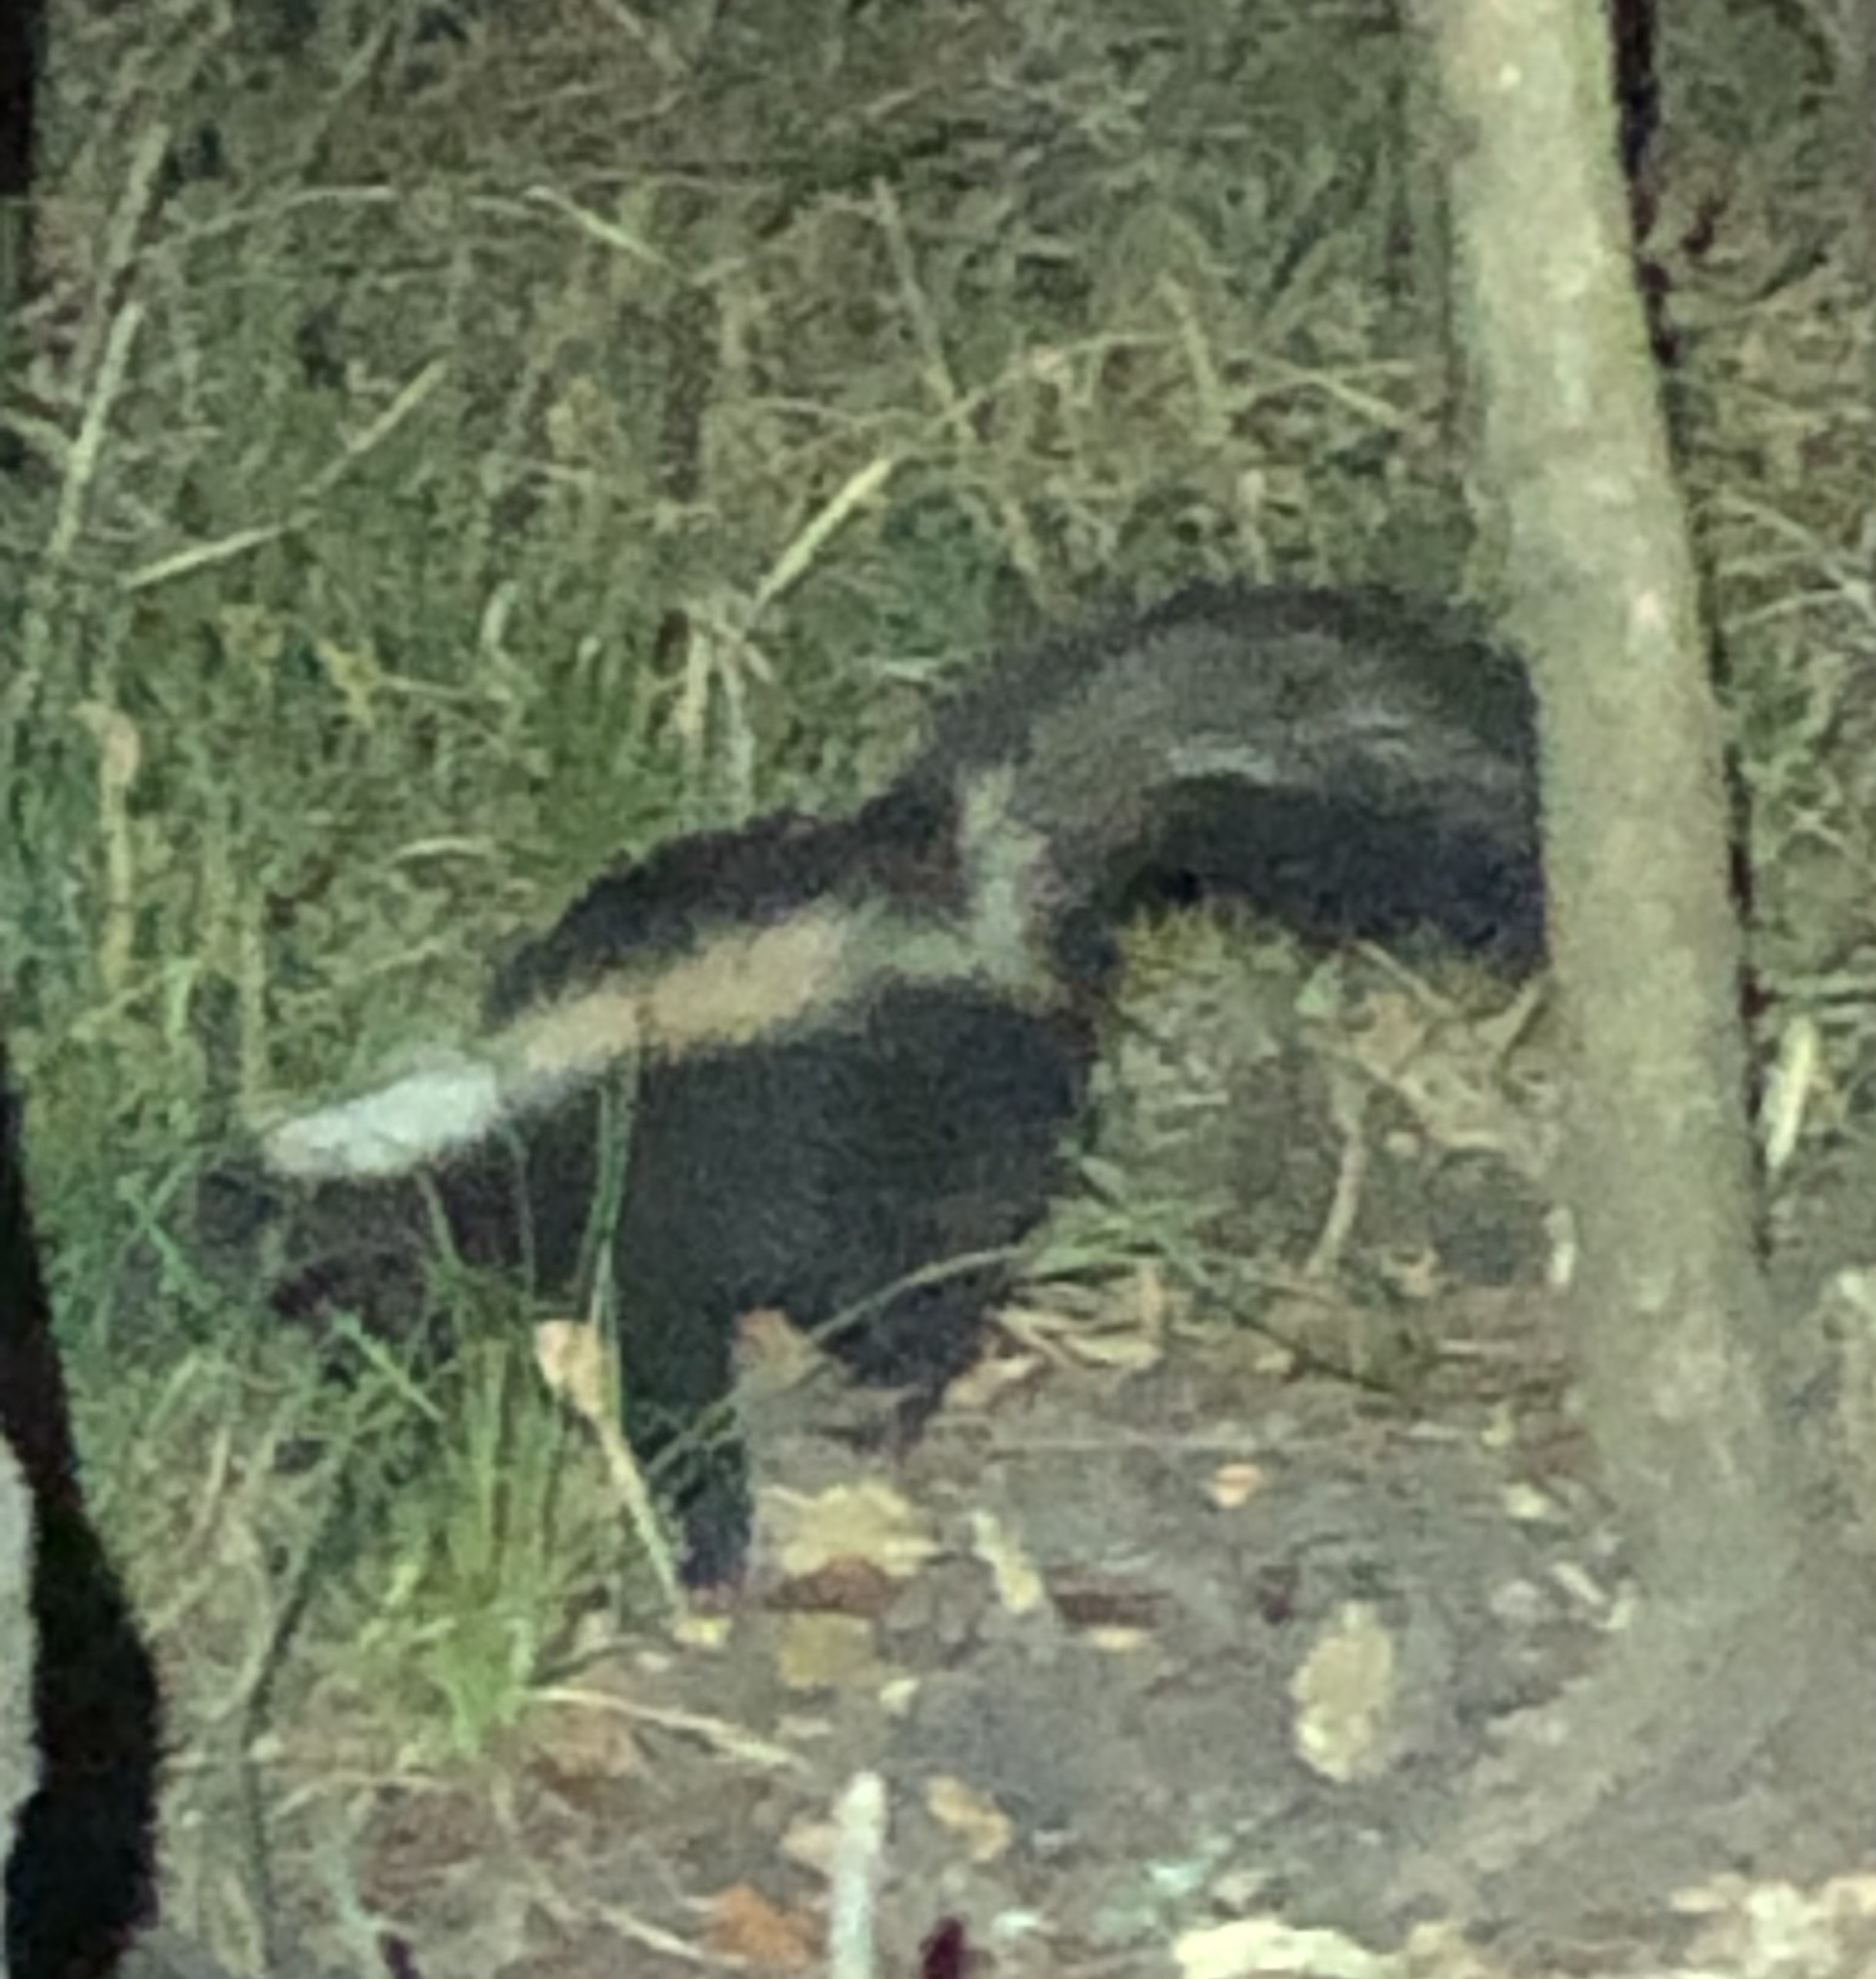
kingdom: Animalia
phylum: Chordata
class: Mammalia
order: Carnivora
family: Mephitidae
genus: Mephitis
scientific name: Mephitis mephitis
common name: Striped skunk
